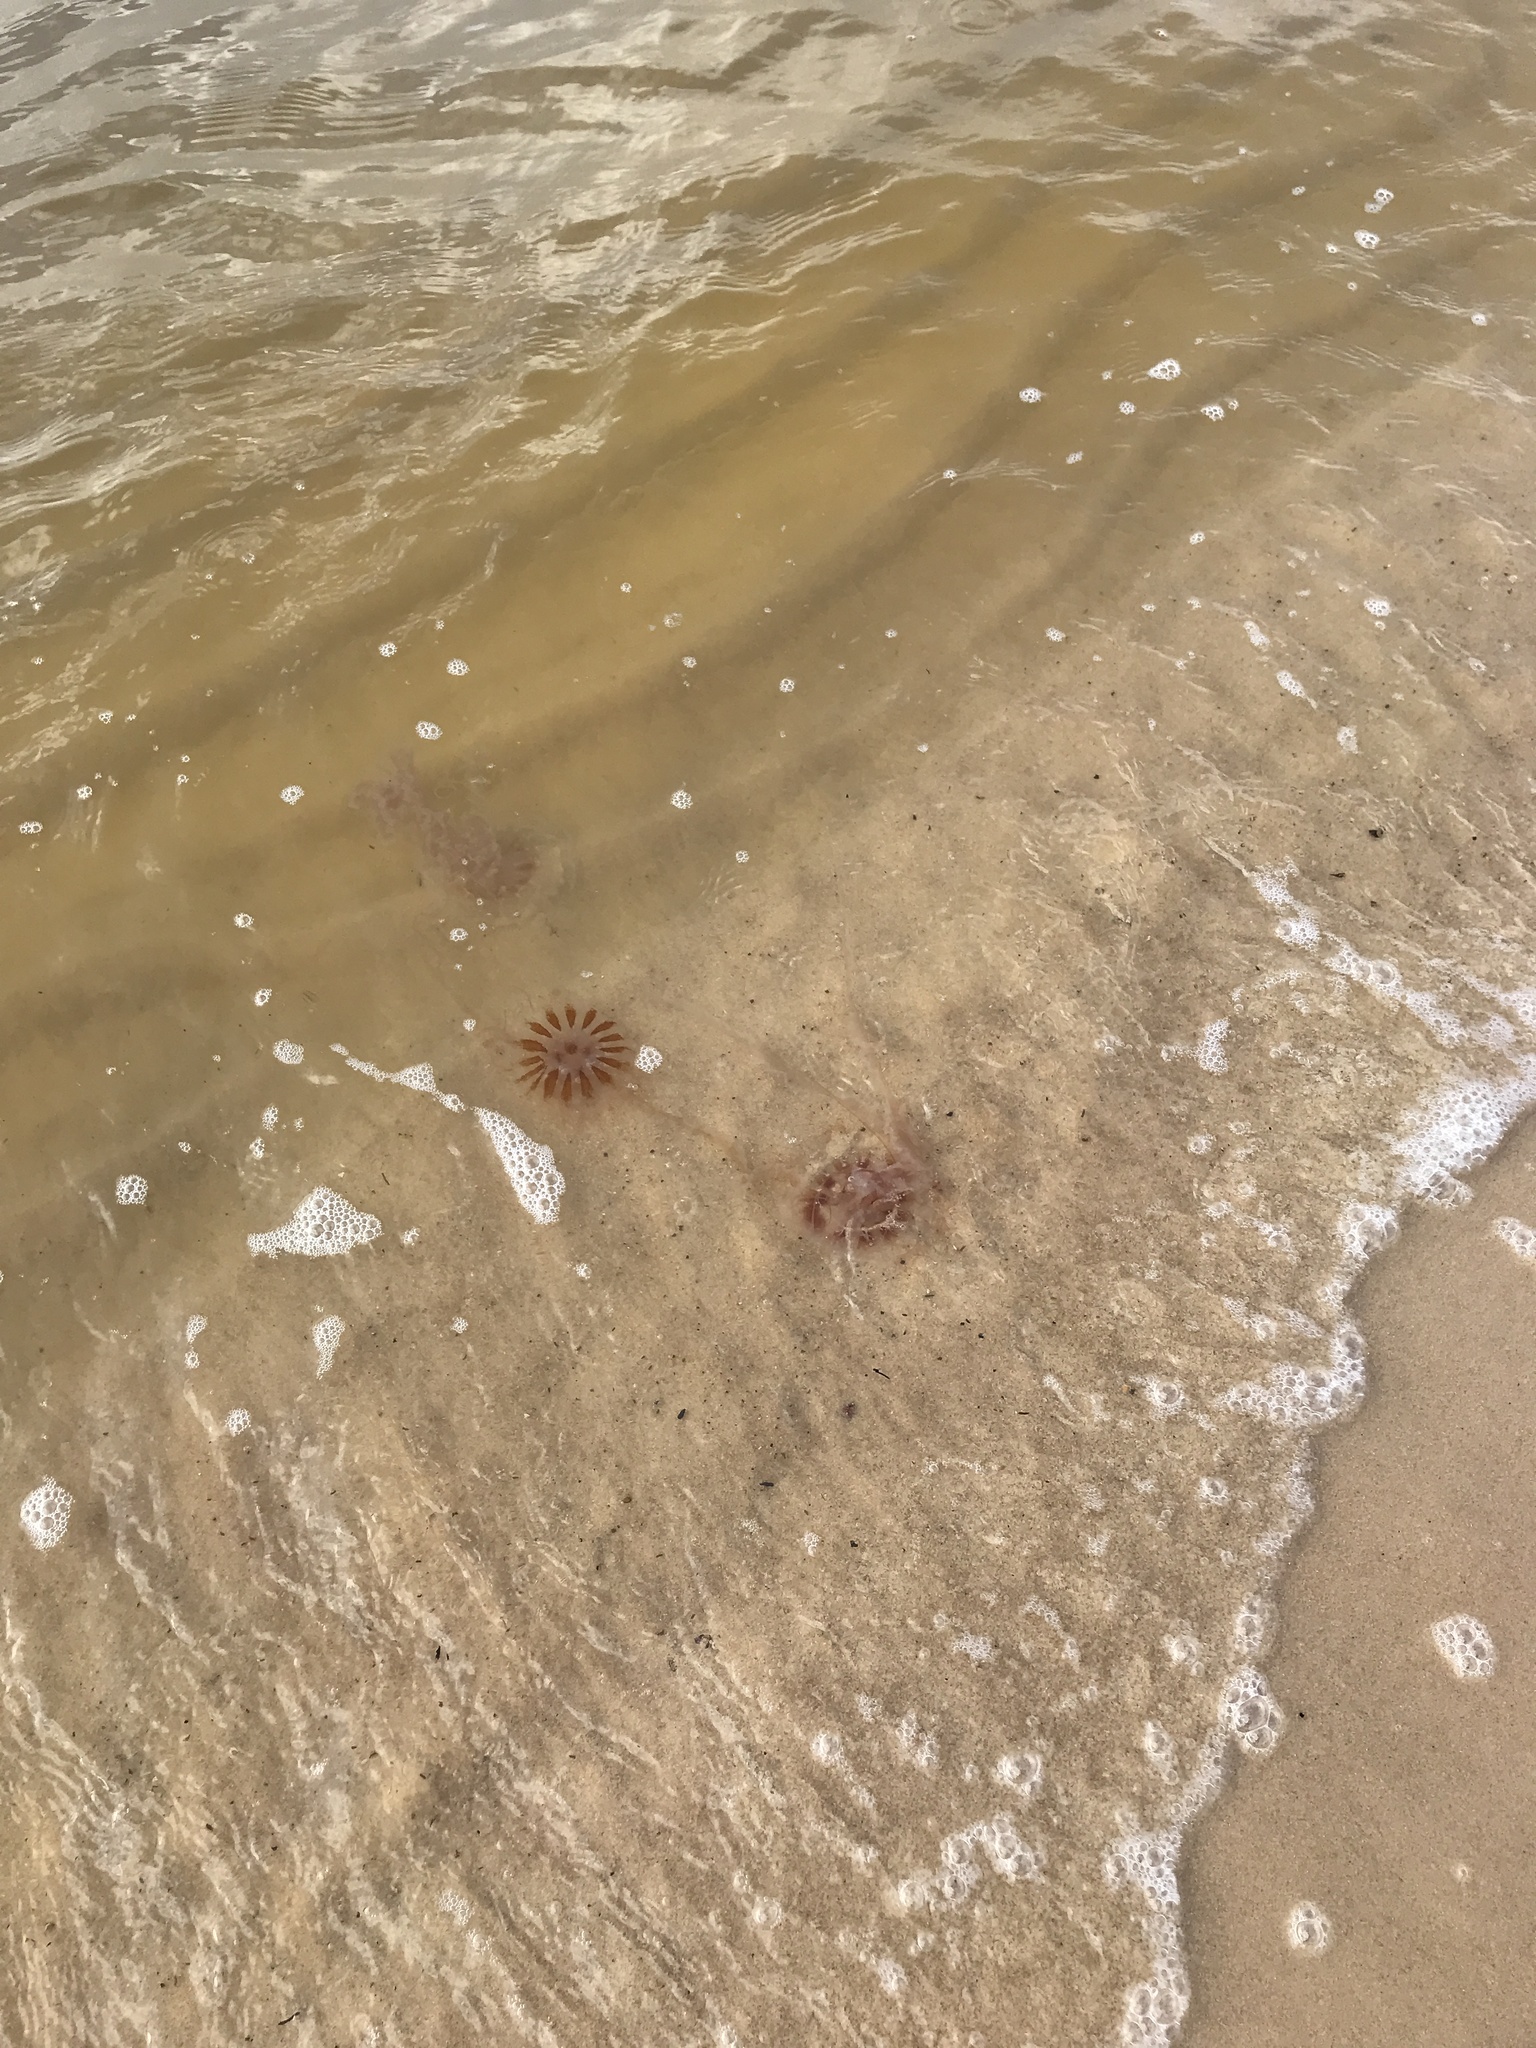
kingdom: Animalia
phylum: Cnidaria
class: Scyphozoa
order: Semaeostomeae
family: Pelagiidae
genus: Chrysaora
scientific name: Chrysaora chesapeakei
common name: Bay nettle
